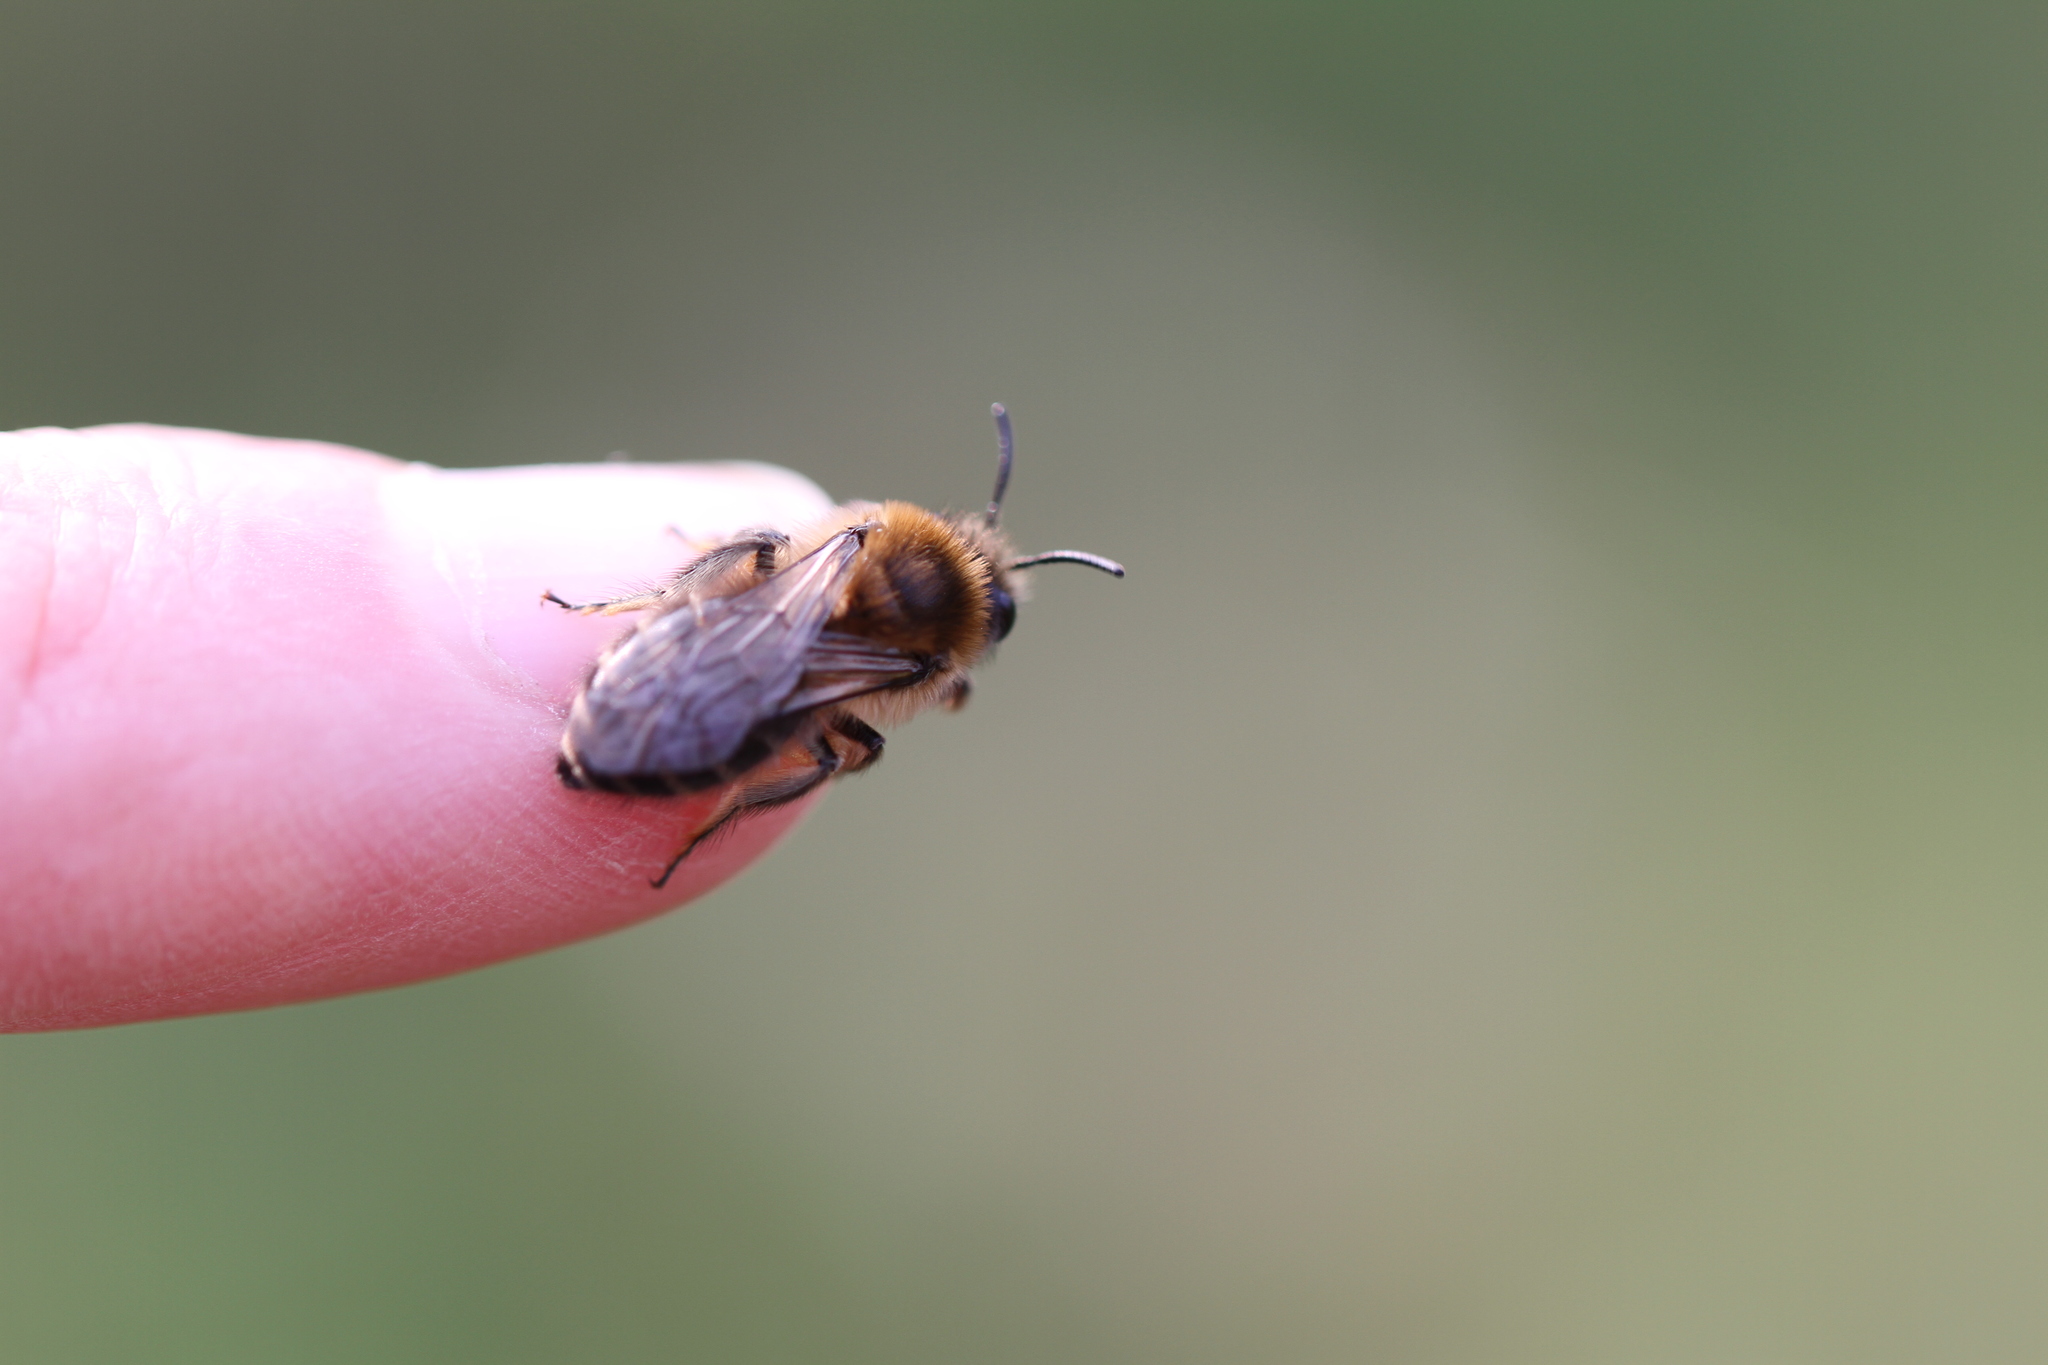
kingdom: Animalia
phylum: Arthropoda
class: Insecta
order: Hymenoptera
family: Colletidae
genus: Colletes
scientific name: Colletes cunicularius
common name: Early colletes
